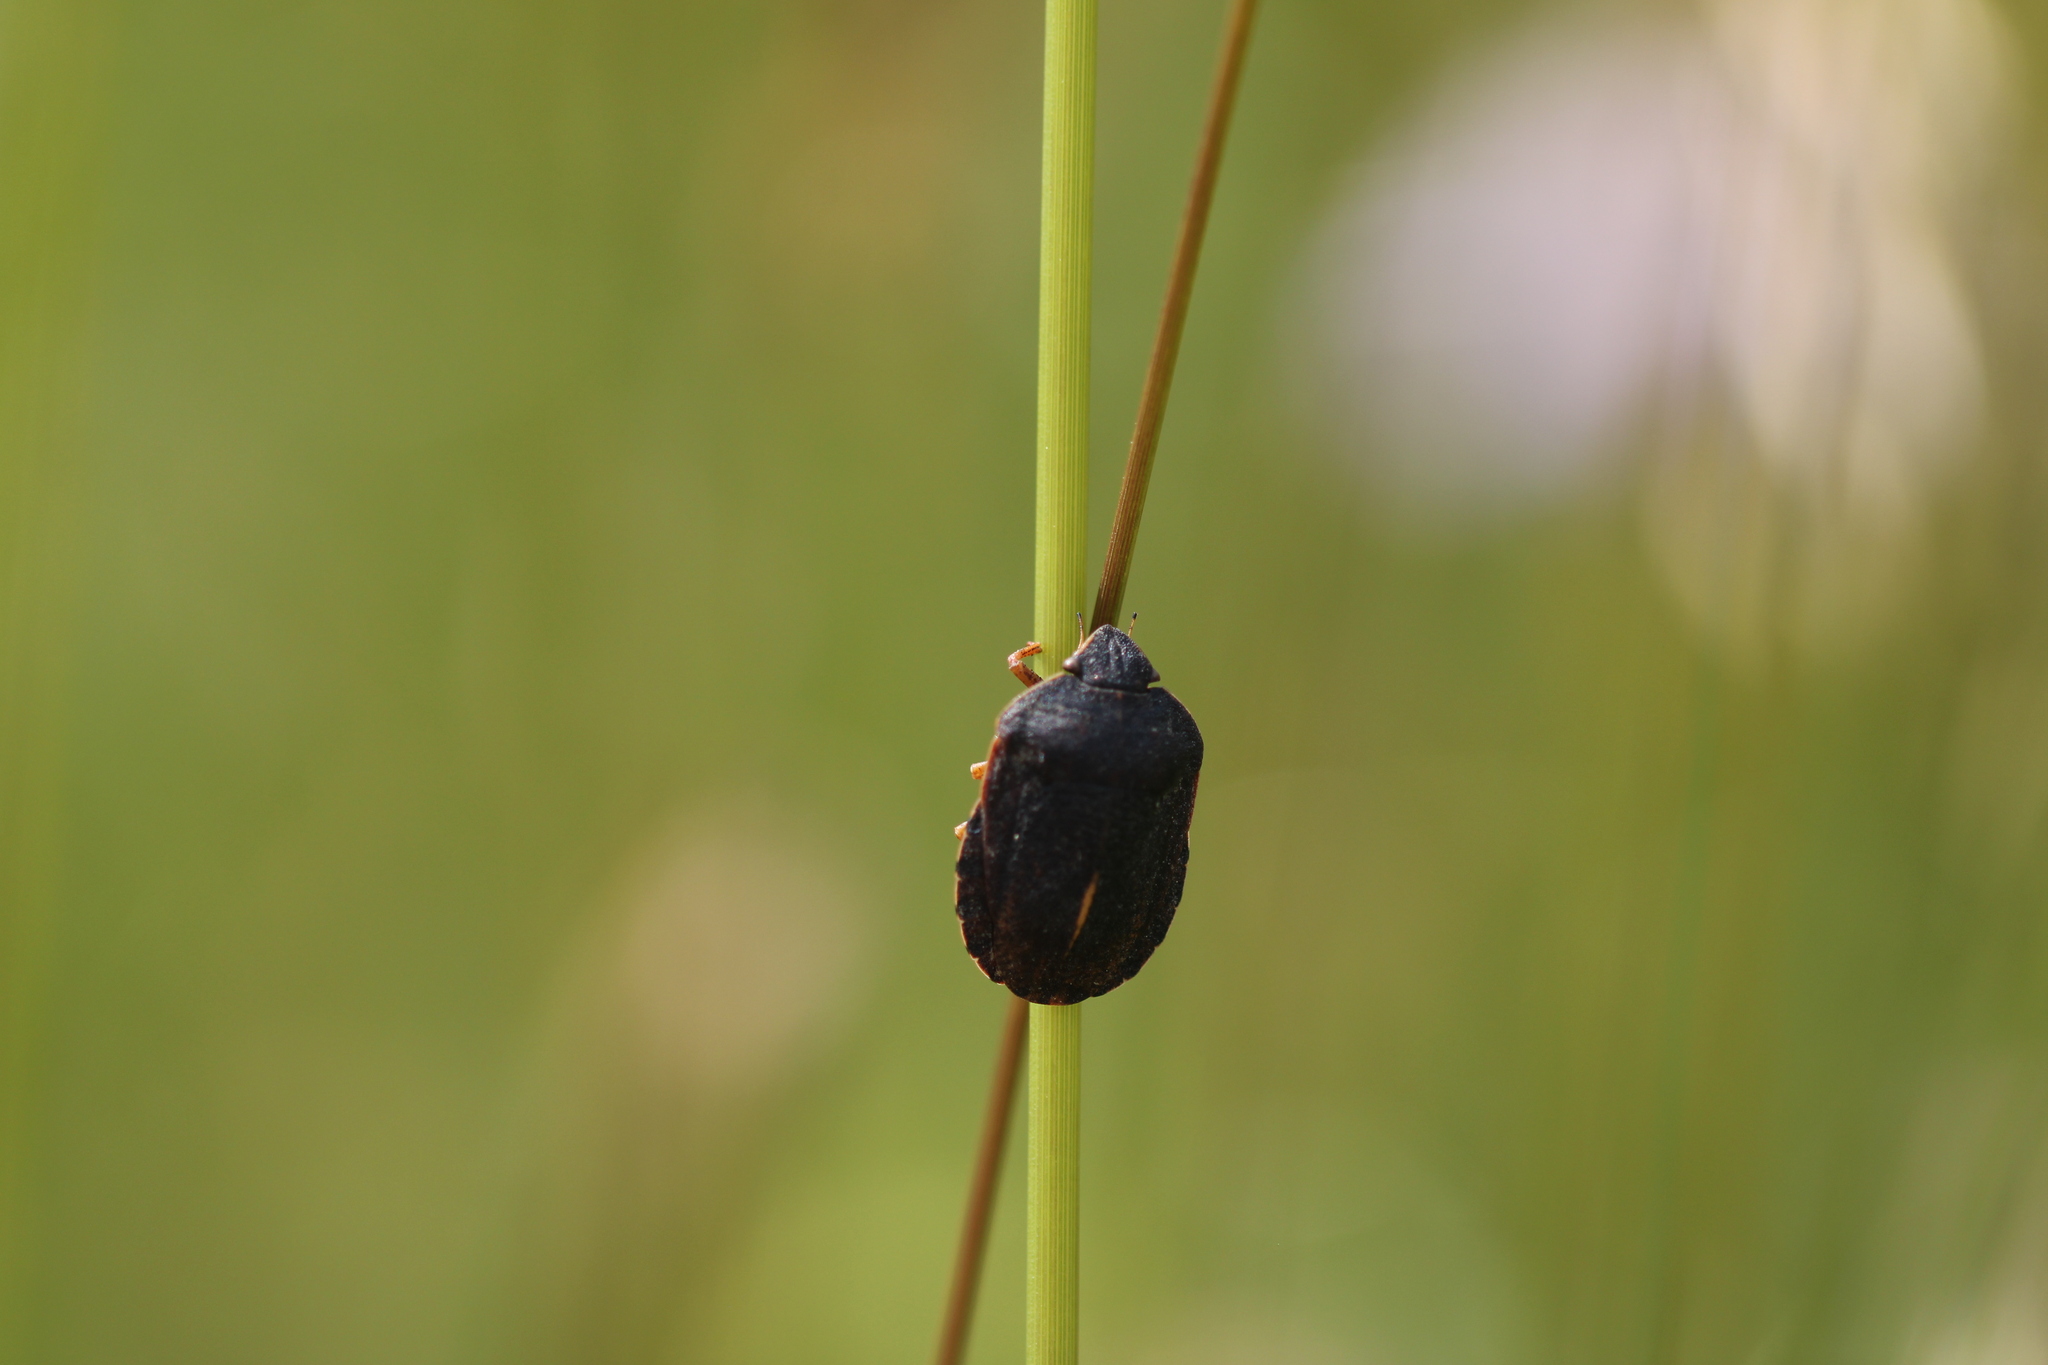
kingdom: Animalia
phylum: Arthropoda
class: Insecta
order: Hemiptera
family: Scutelleridae
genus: Eurygaster
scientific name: Eurygaster austriaca
